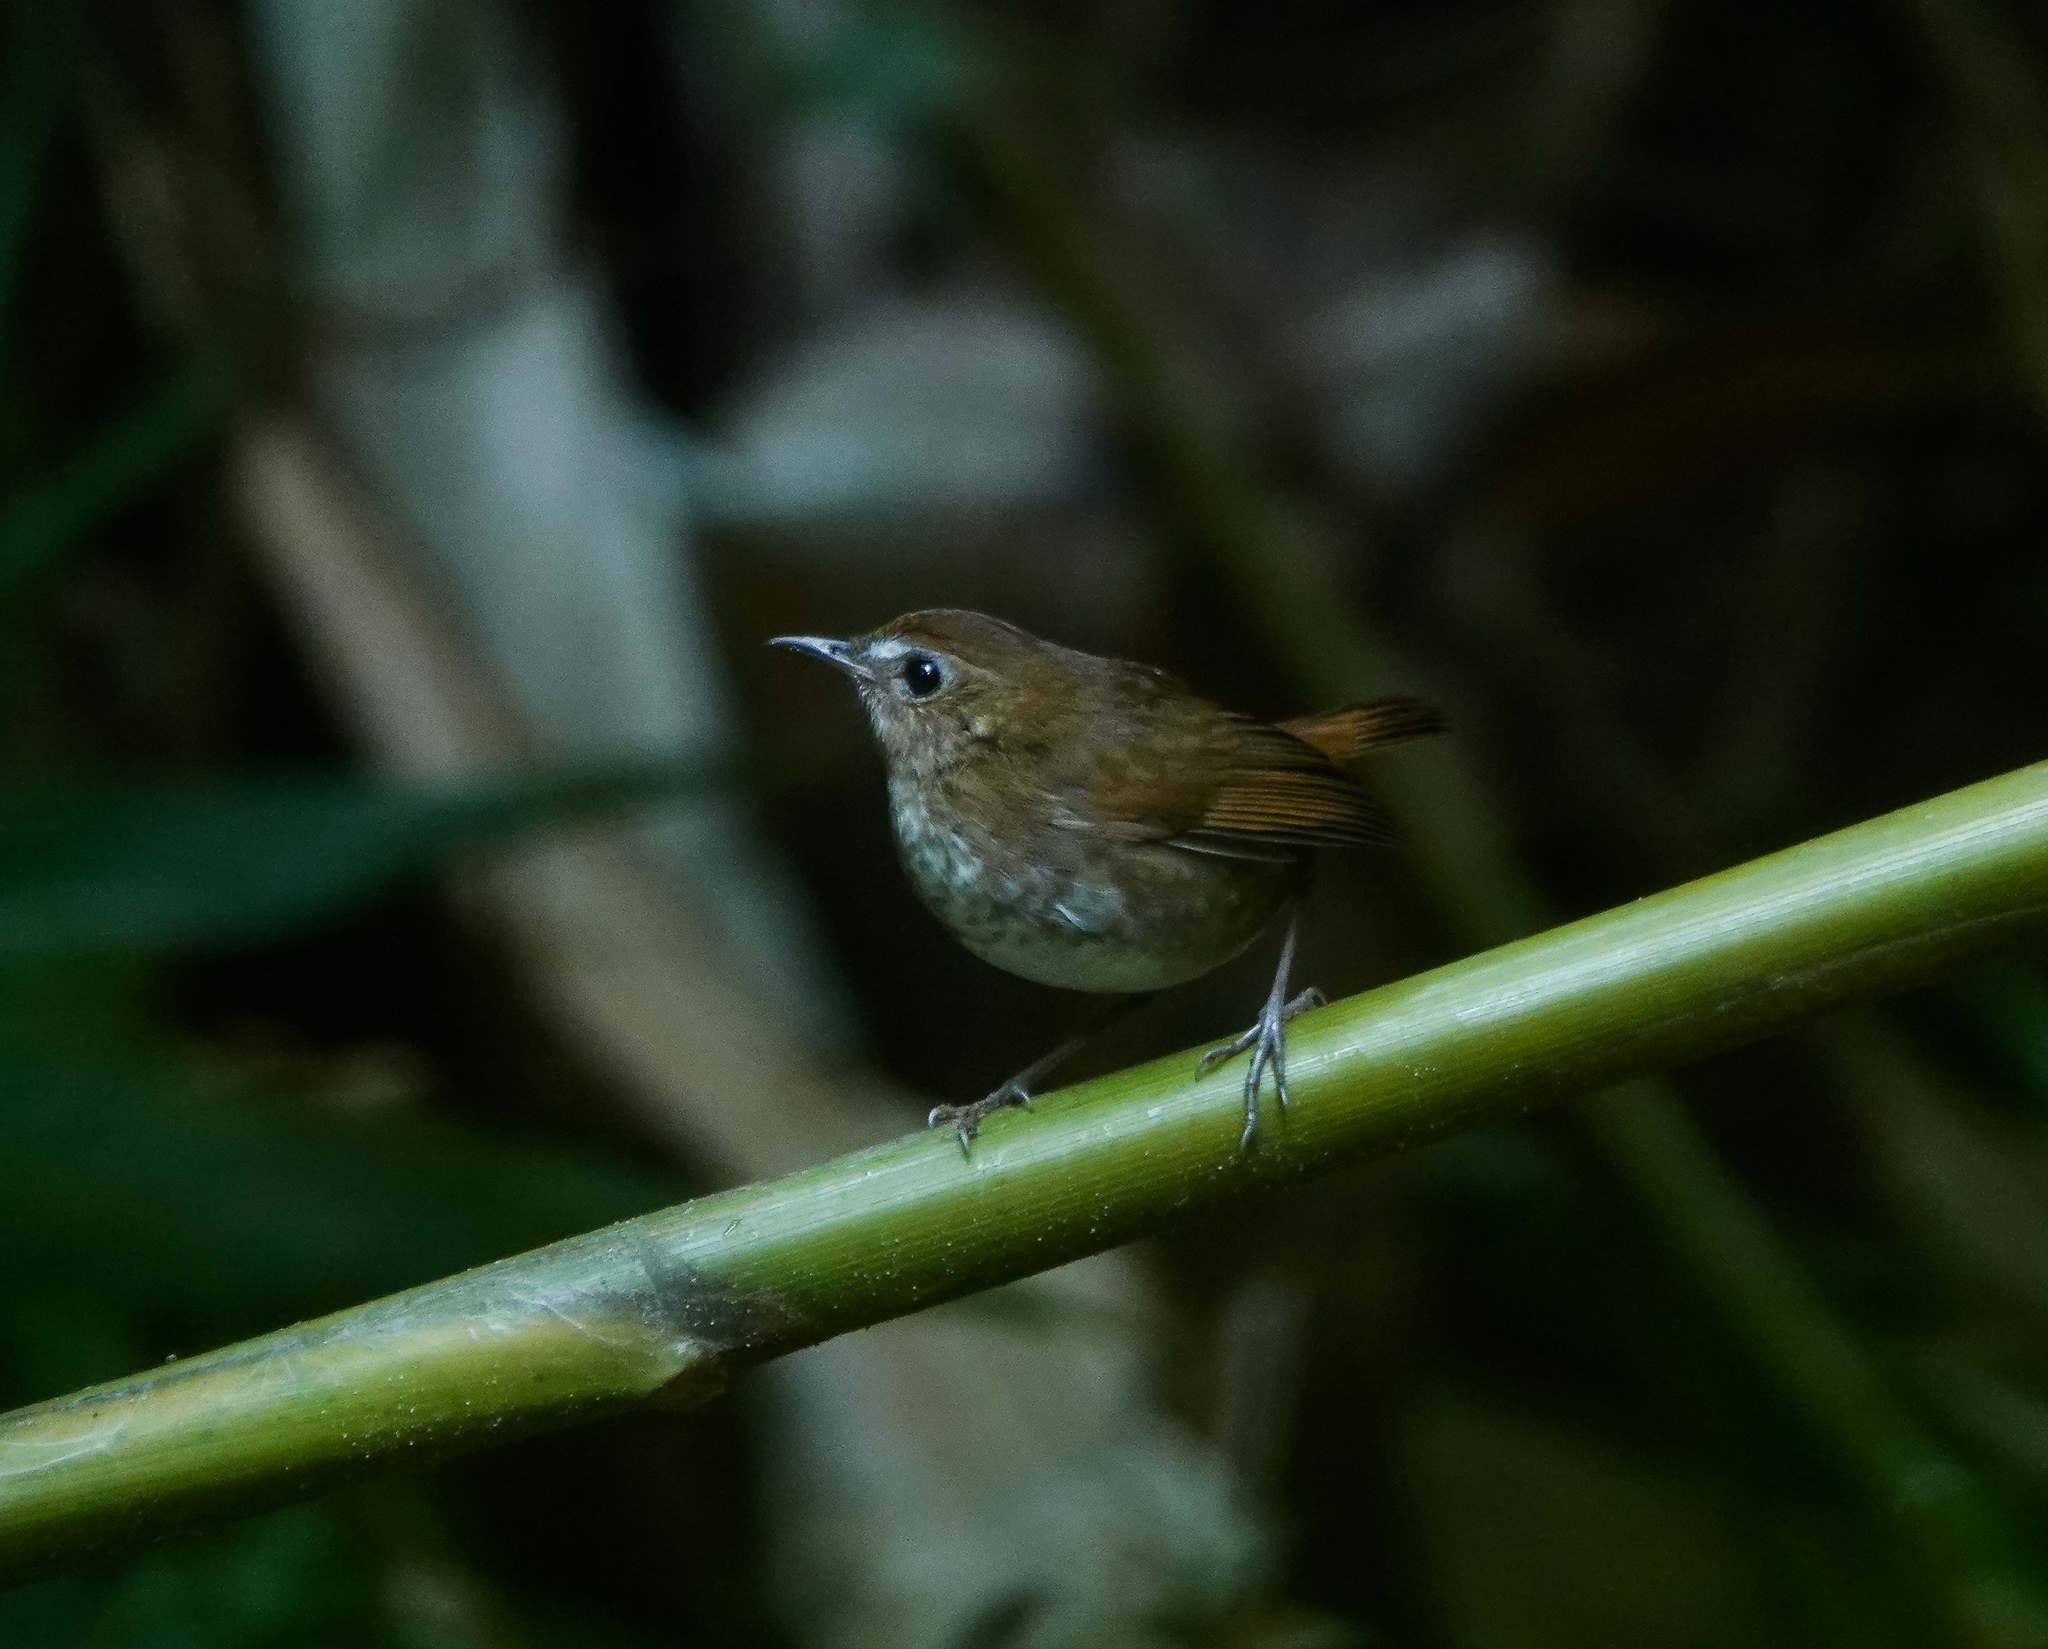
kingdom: Animalia
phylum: Chordata
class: Aves
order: Passeriformes
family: Muscicapidae
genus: Brachypteryx
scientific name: Brachypteryx leucophris
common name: Lesser shortwing
